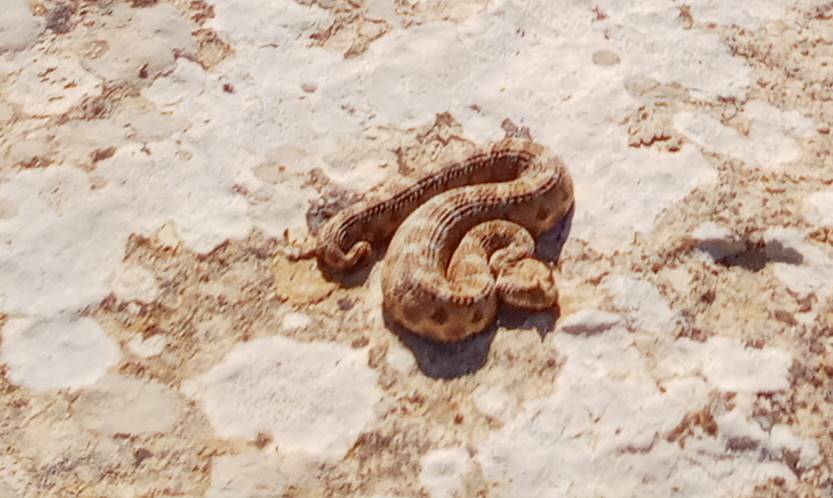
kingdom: Animalia
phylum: Chordata
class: Squamata
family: Viperidae
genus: Cerastes
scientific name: Cerastes cerastes
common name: Desert horned viper
